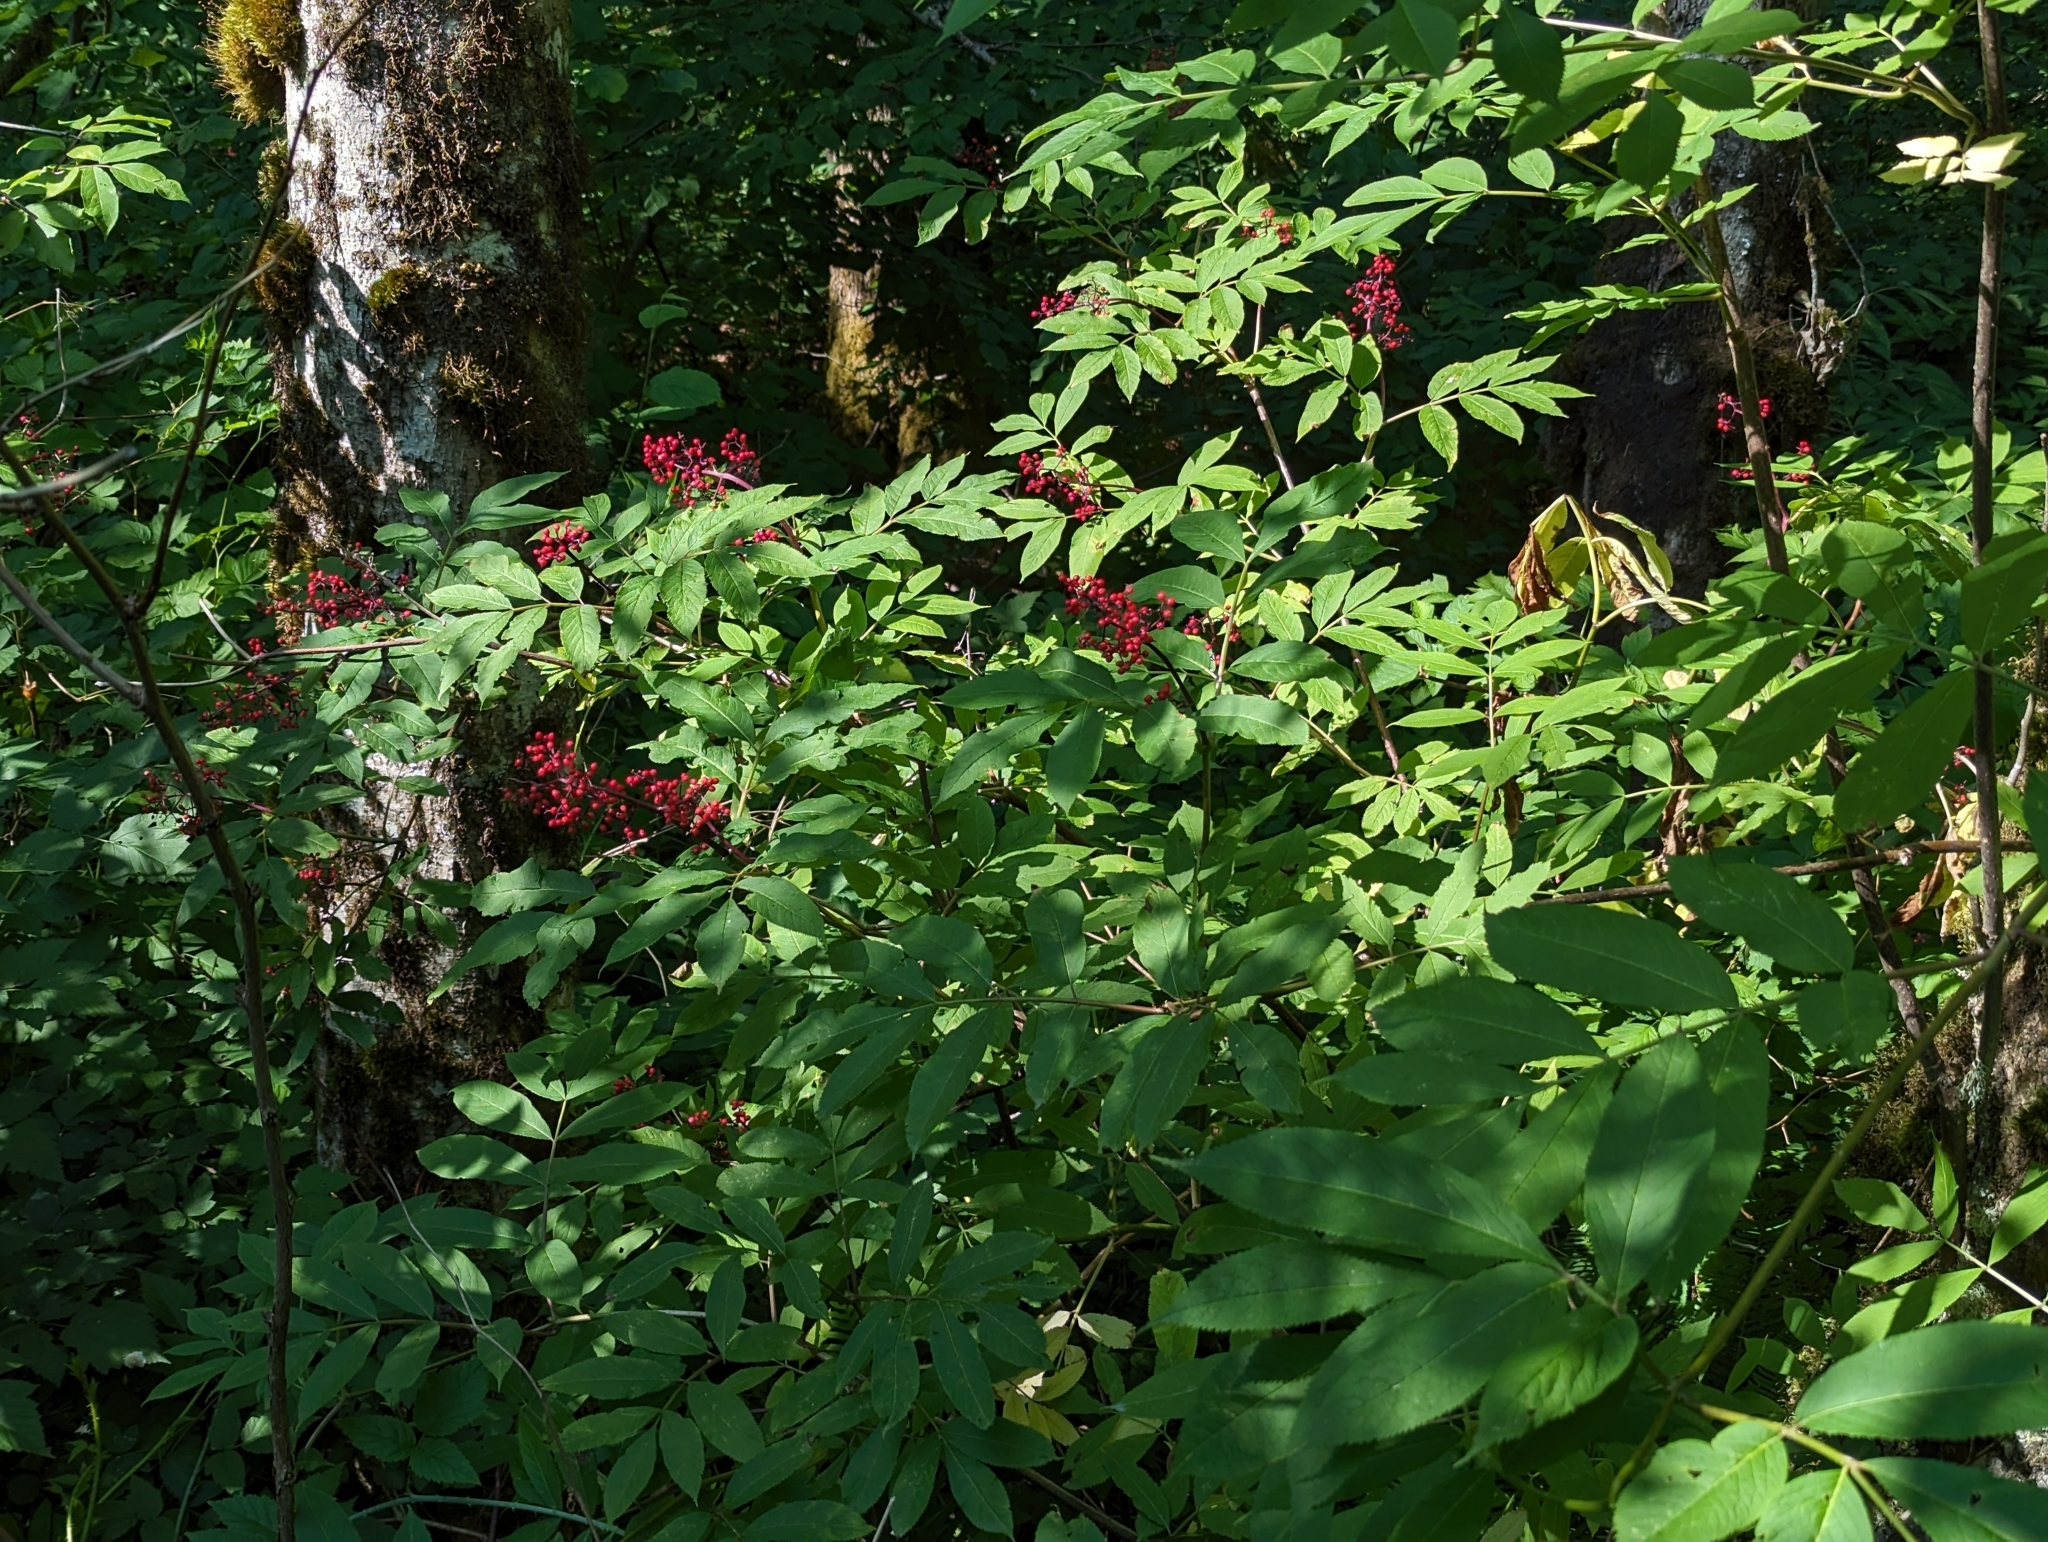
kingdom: Plantae
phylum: Tracheophyta
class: Magnoliopsida
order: Dipsacales
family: Viburnaceae
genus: Sambucus
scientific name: Sambucus racemosa
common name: Red-berried elder
